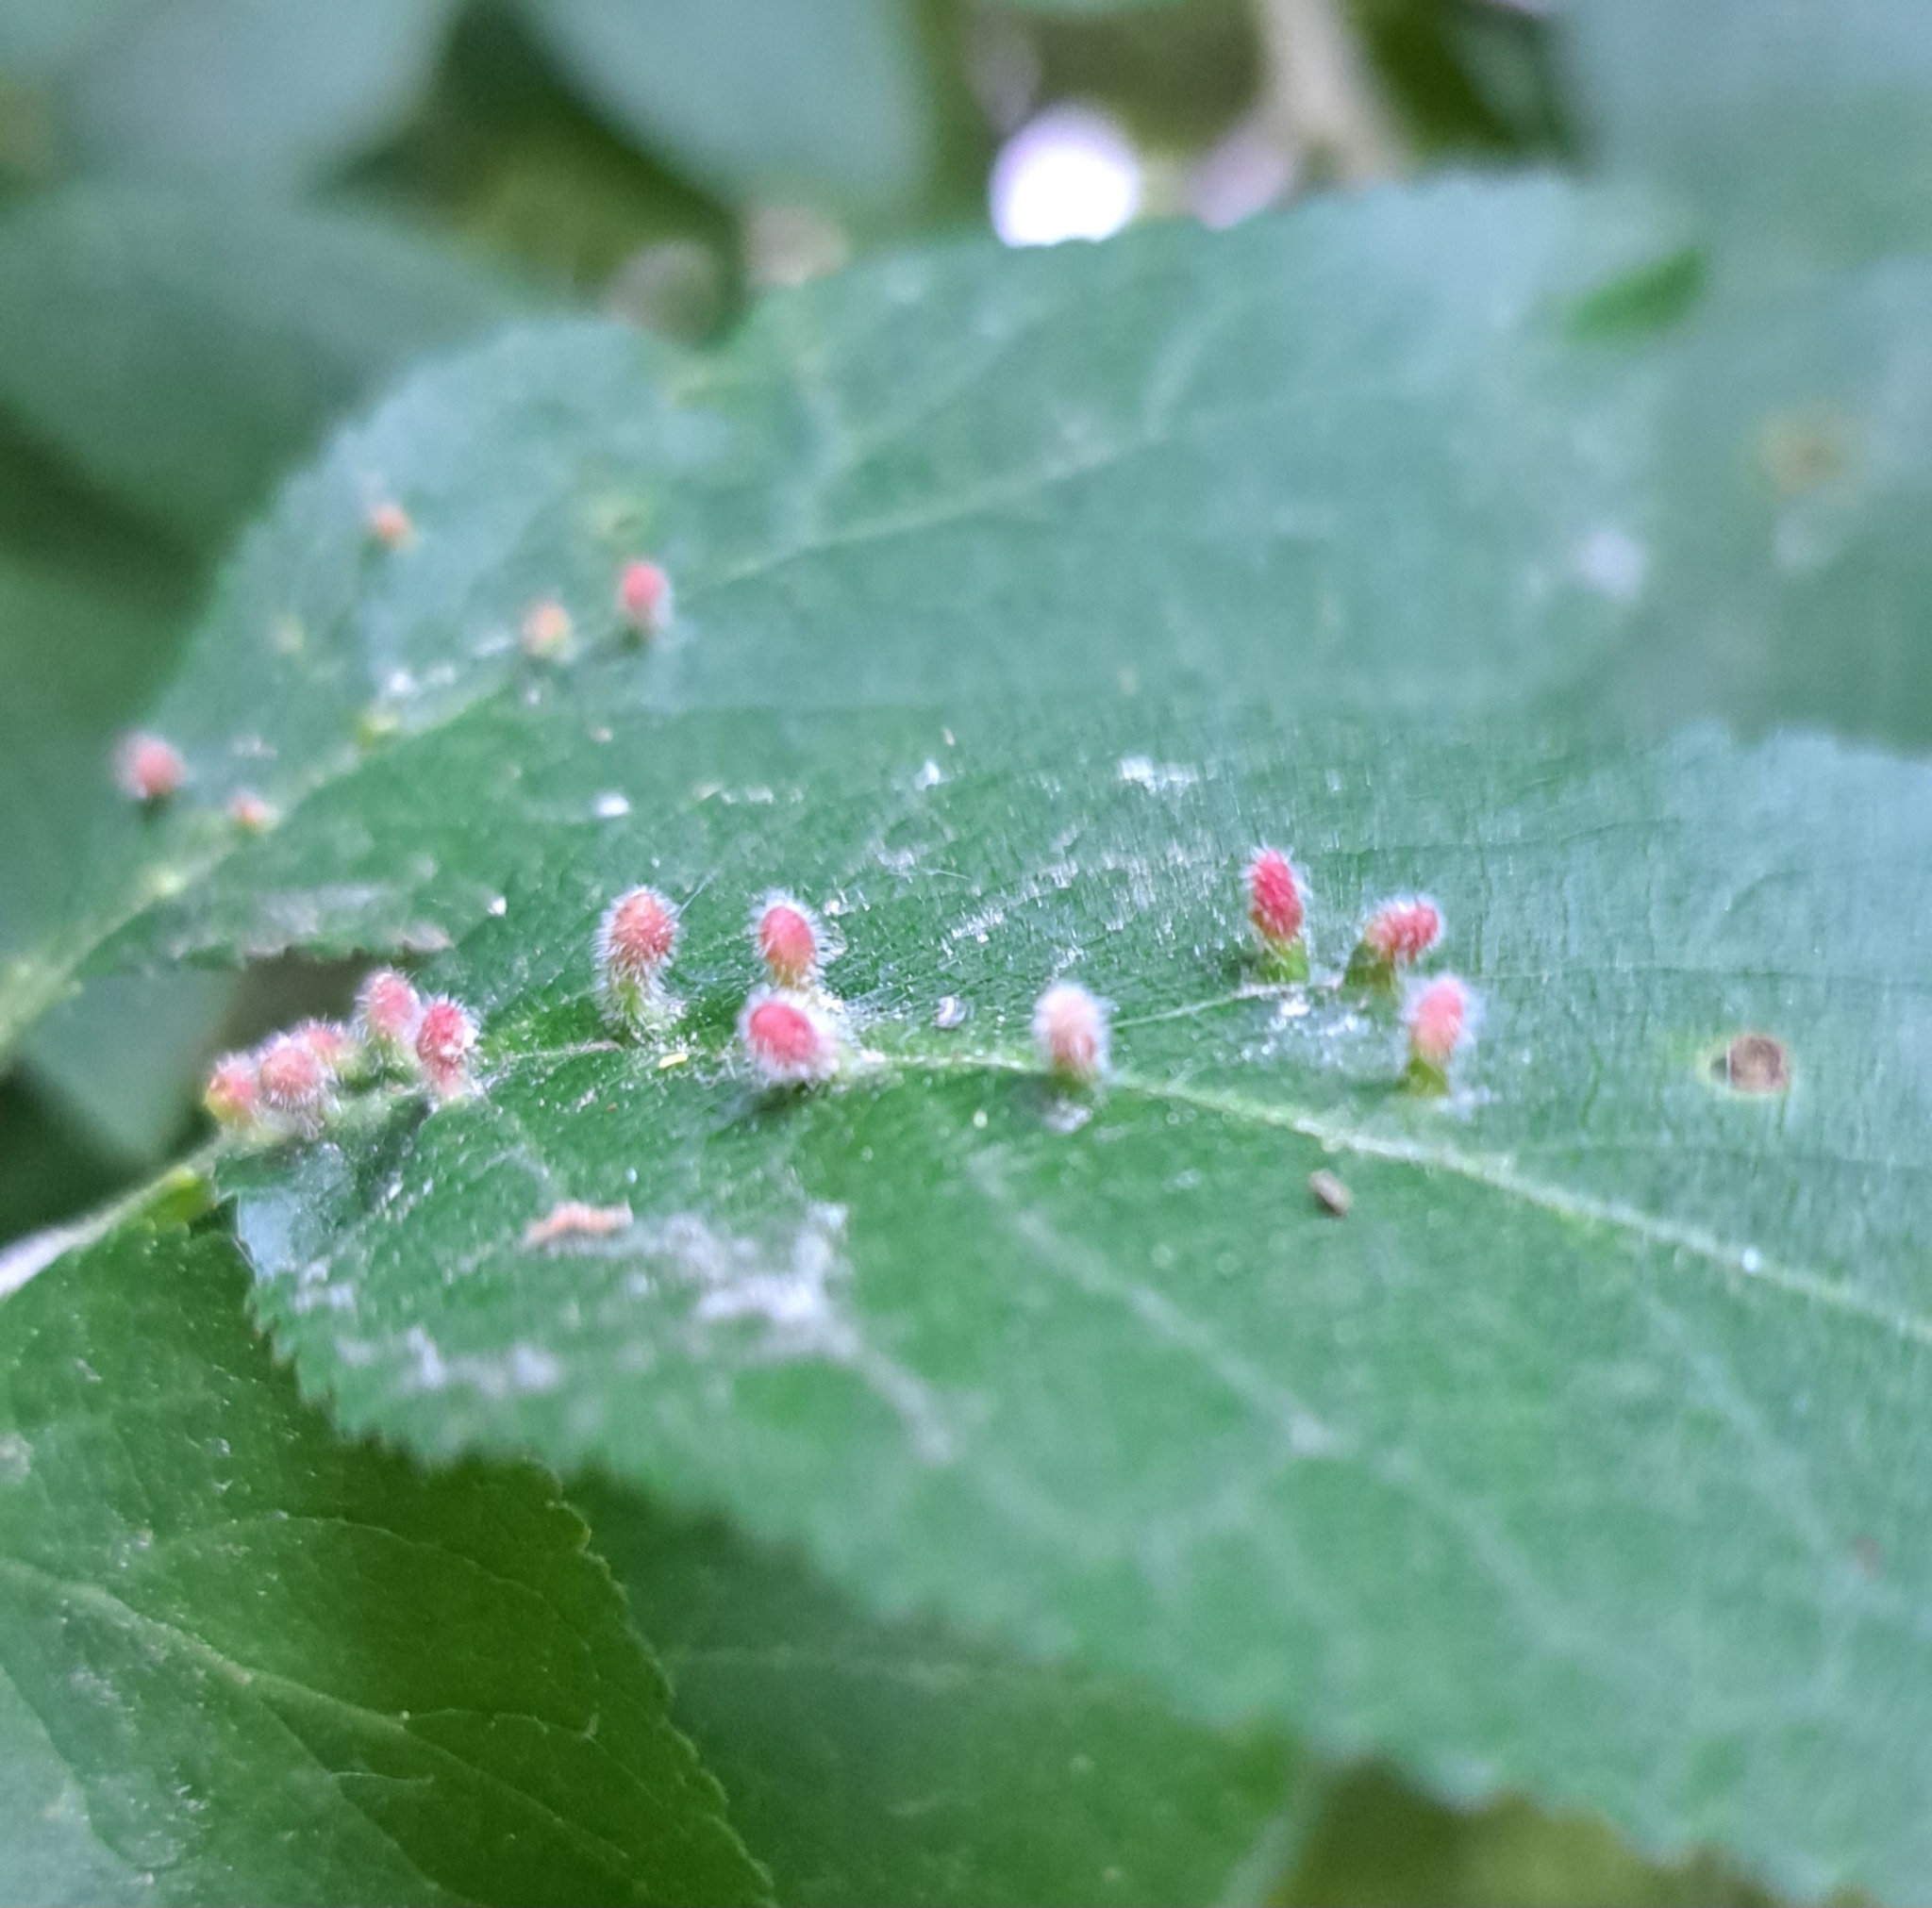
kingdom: Animalia
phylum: Arthropoda
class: Arachnida
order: Trombidiformes
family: Eriophyidae
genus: Eriophyes
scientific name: Eriophyes padi
